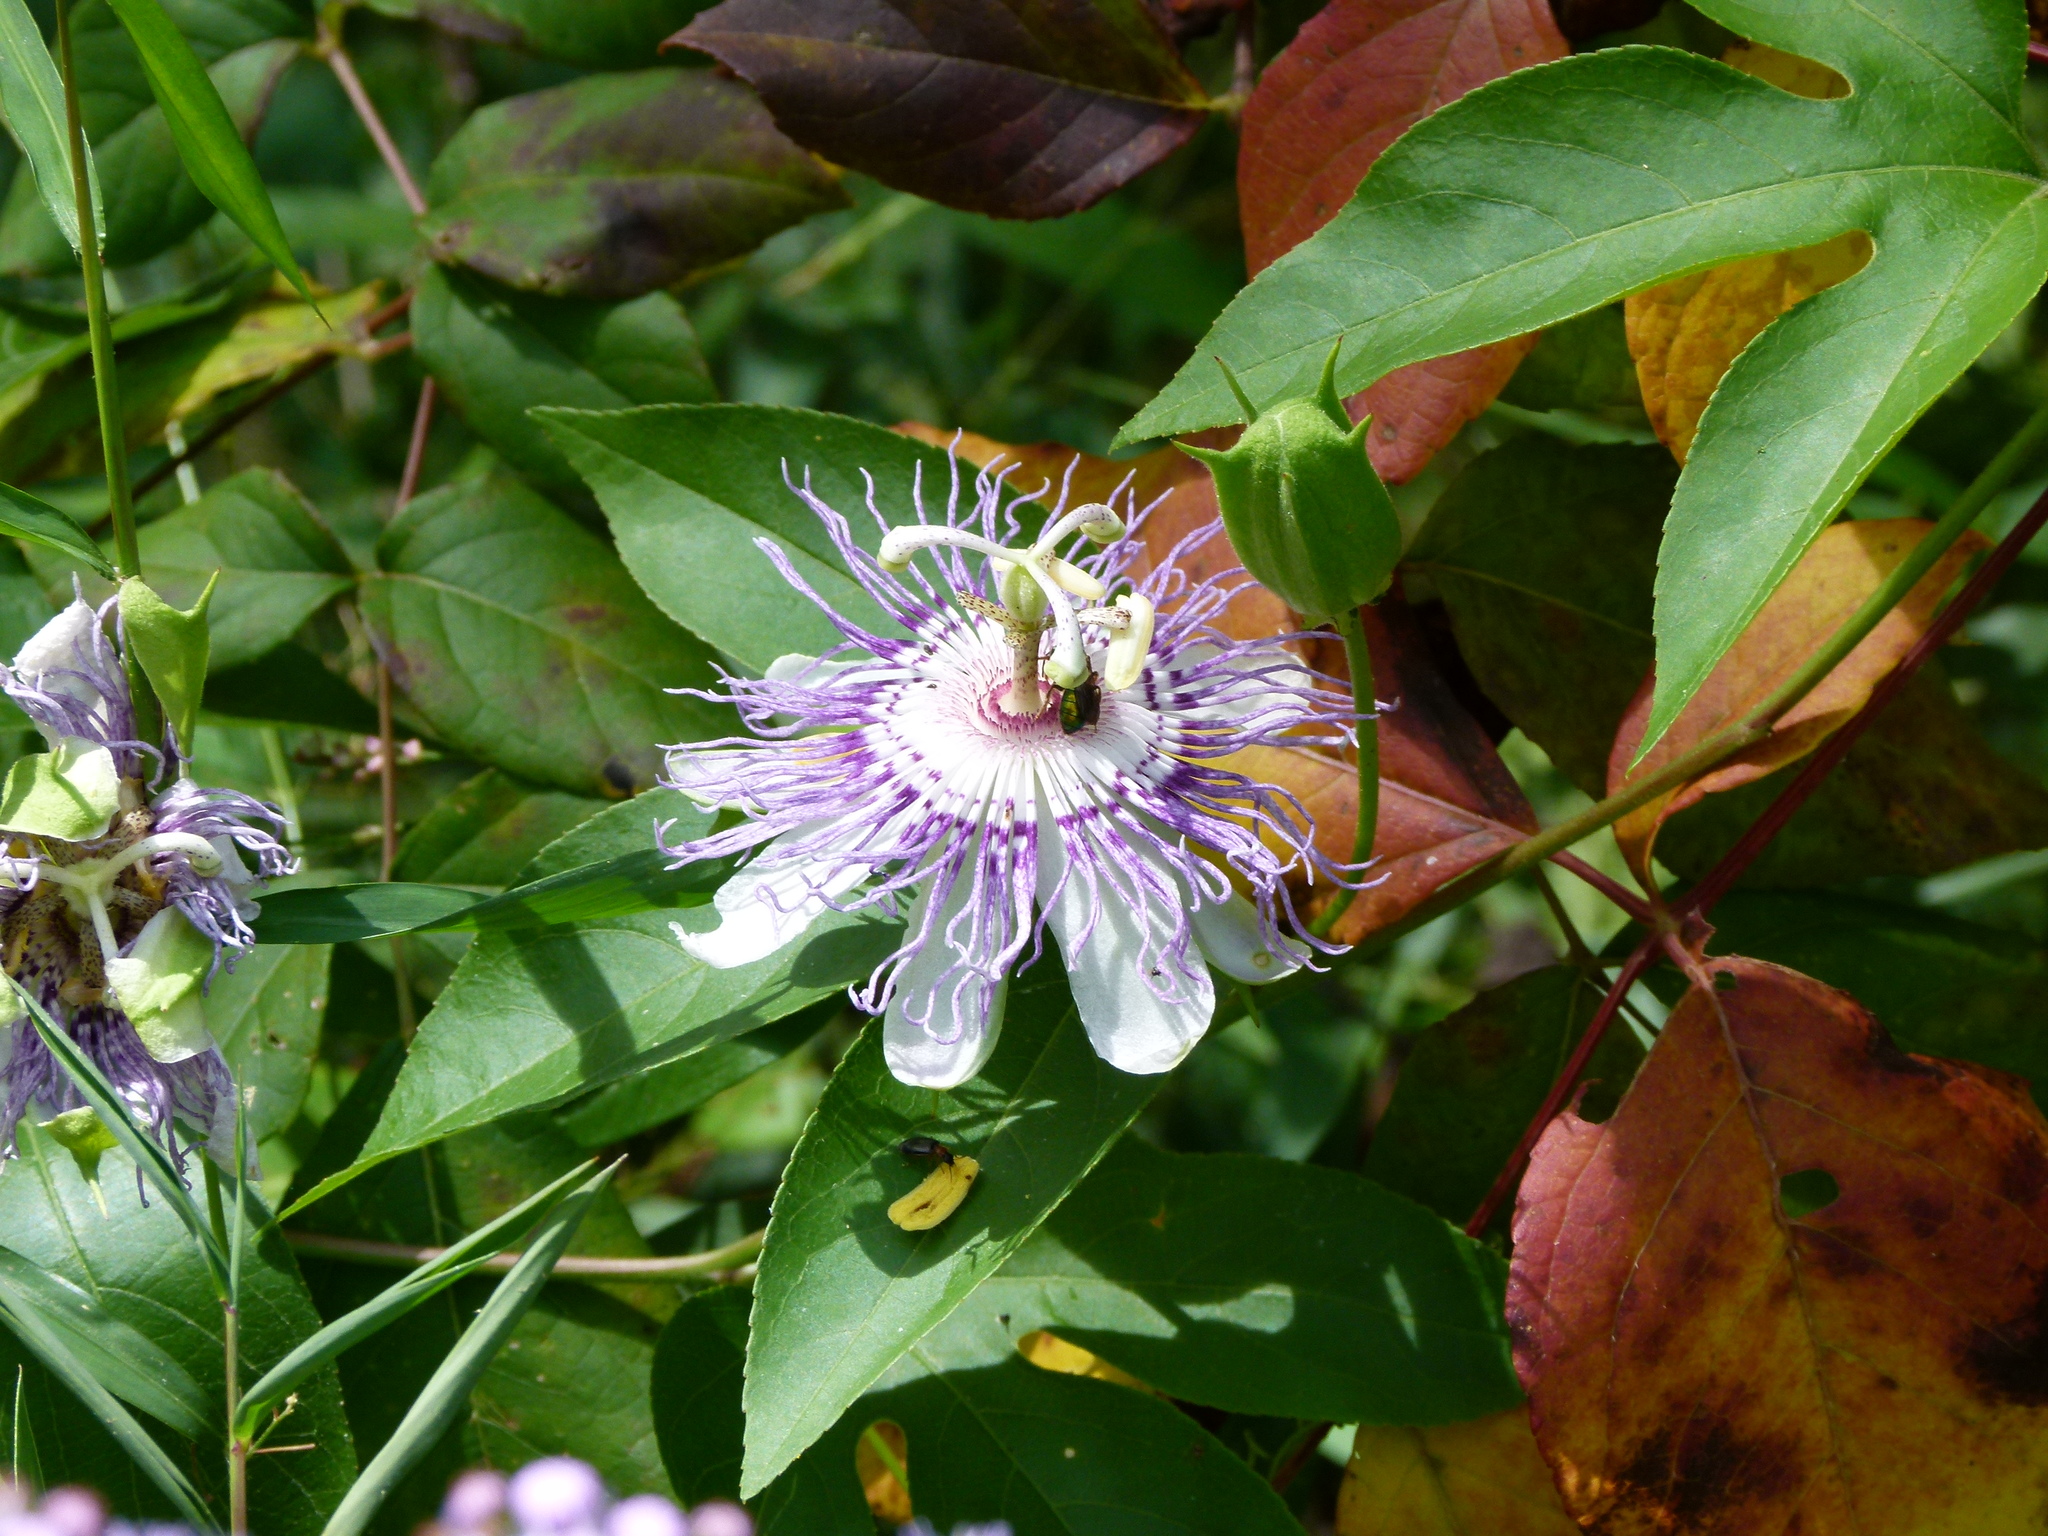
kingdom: Plantae
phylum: Tracheophyta
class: Magnoliopsida
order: Malpighiales
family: Passifloraceae
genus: Passiflora
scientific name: Passiflora incarnata
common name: Apricot-vine
